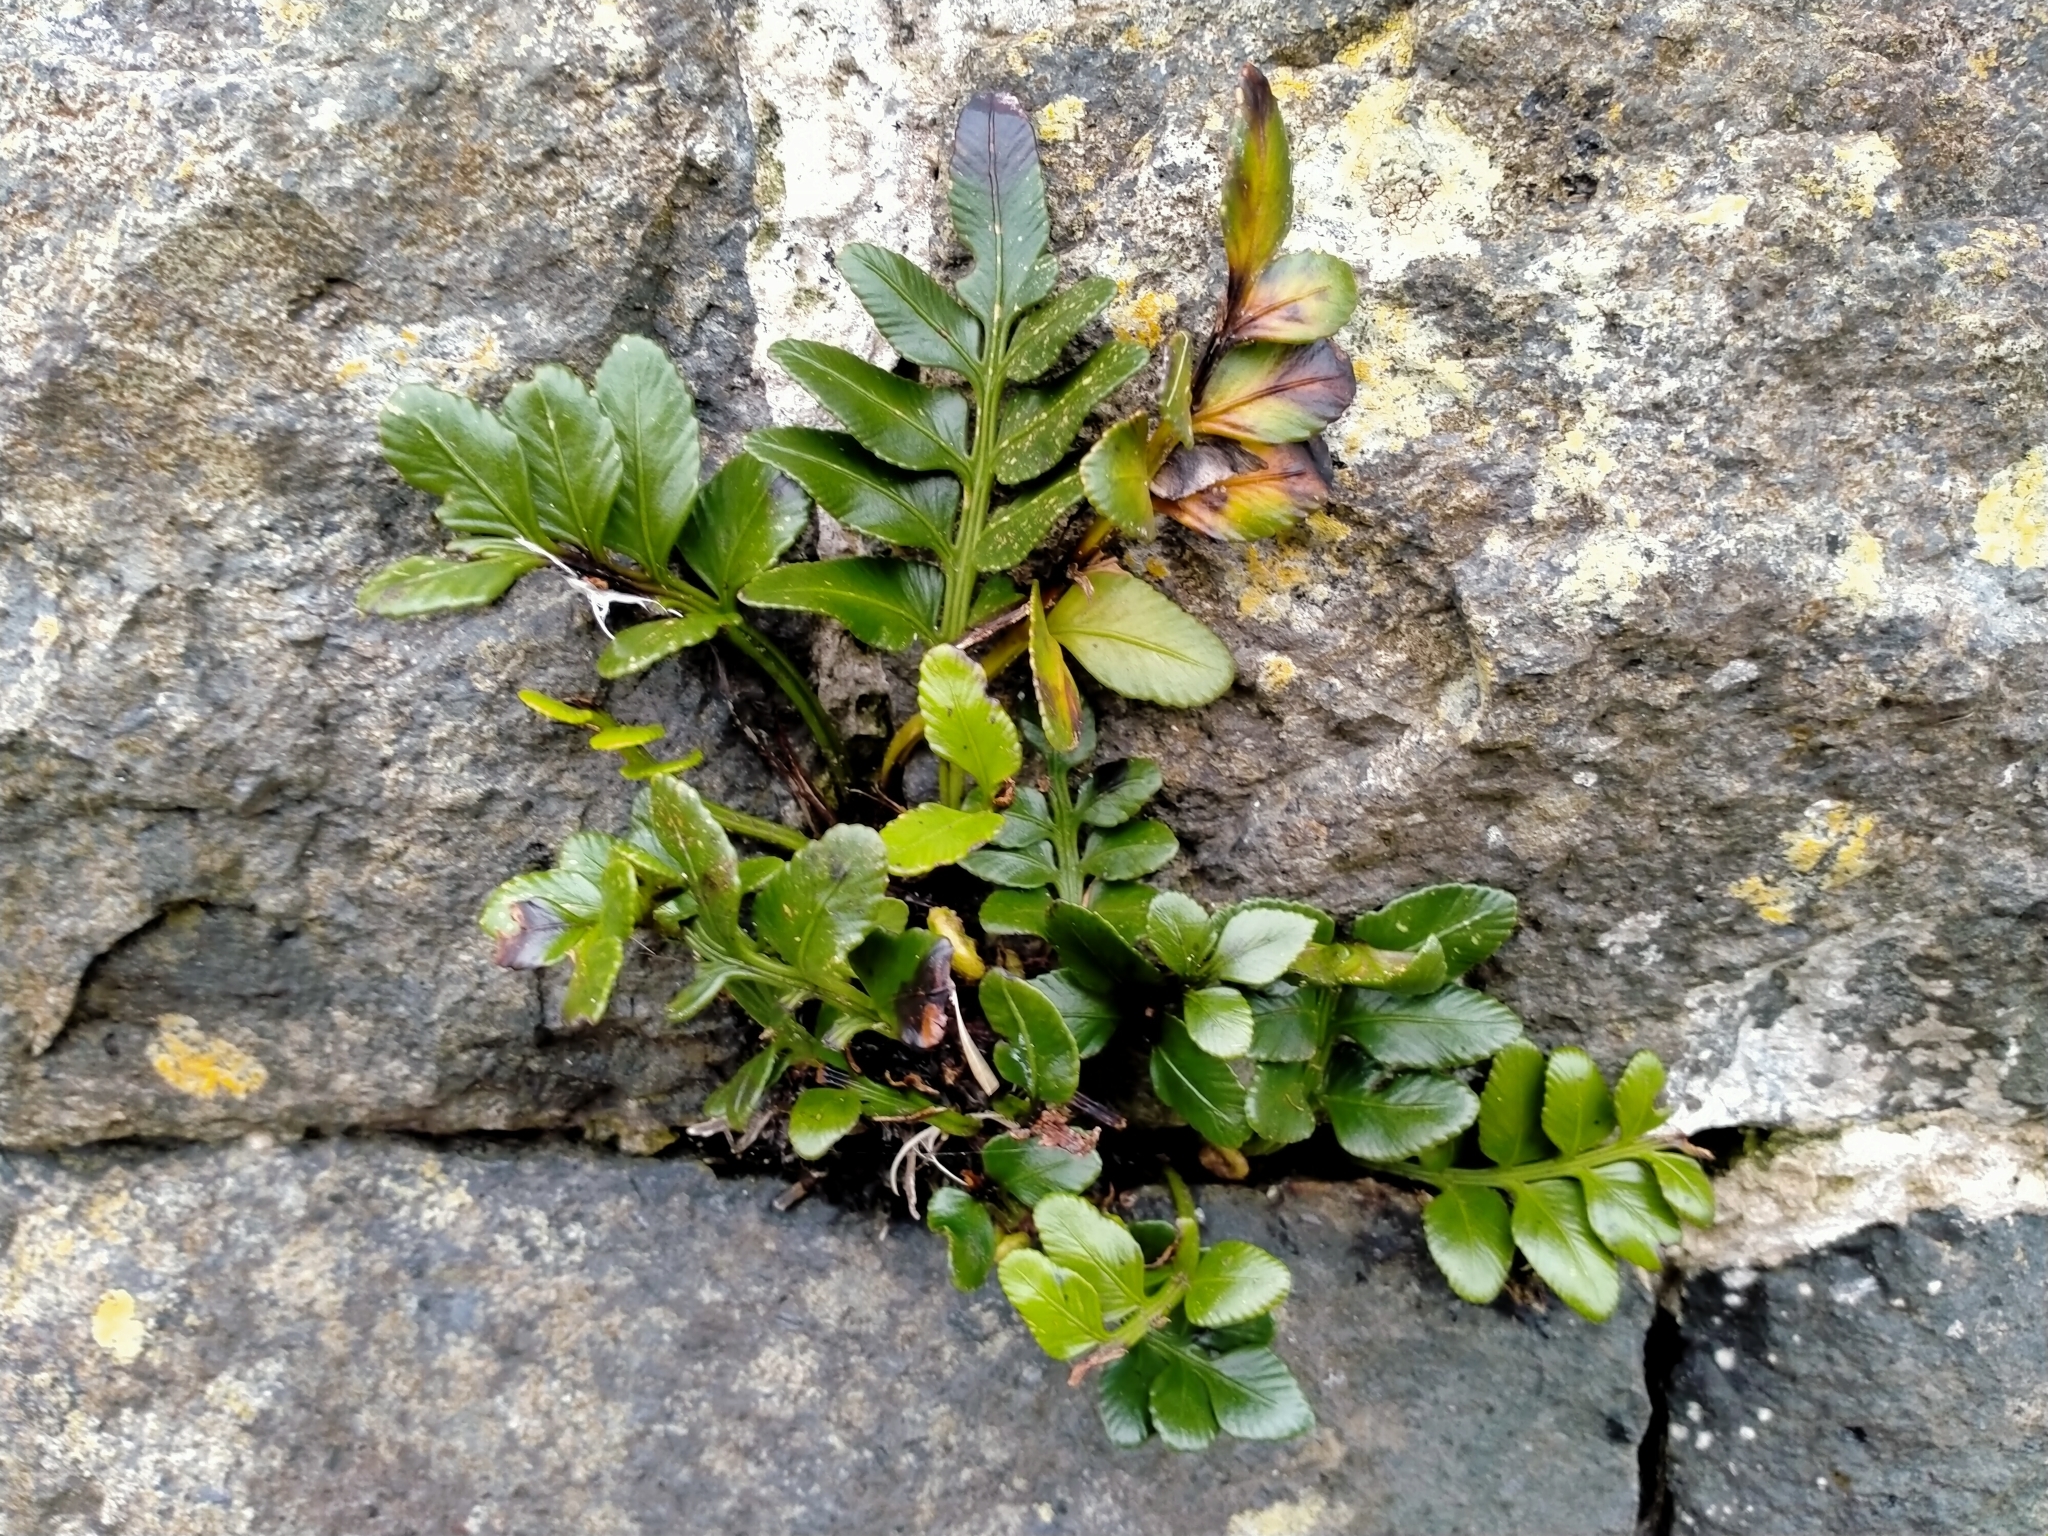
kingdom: Plantae
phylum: Tracheophyta
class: Polypodiopsida
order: Polypodiales
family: Aspleniaceae
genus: Asplenium
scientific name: Asplenium obtusatum
